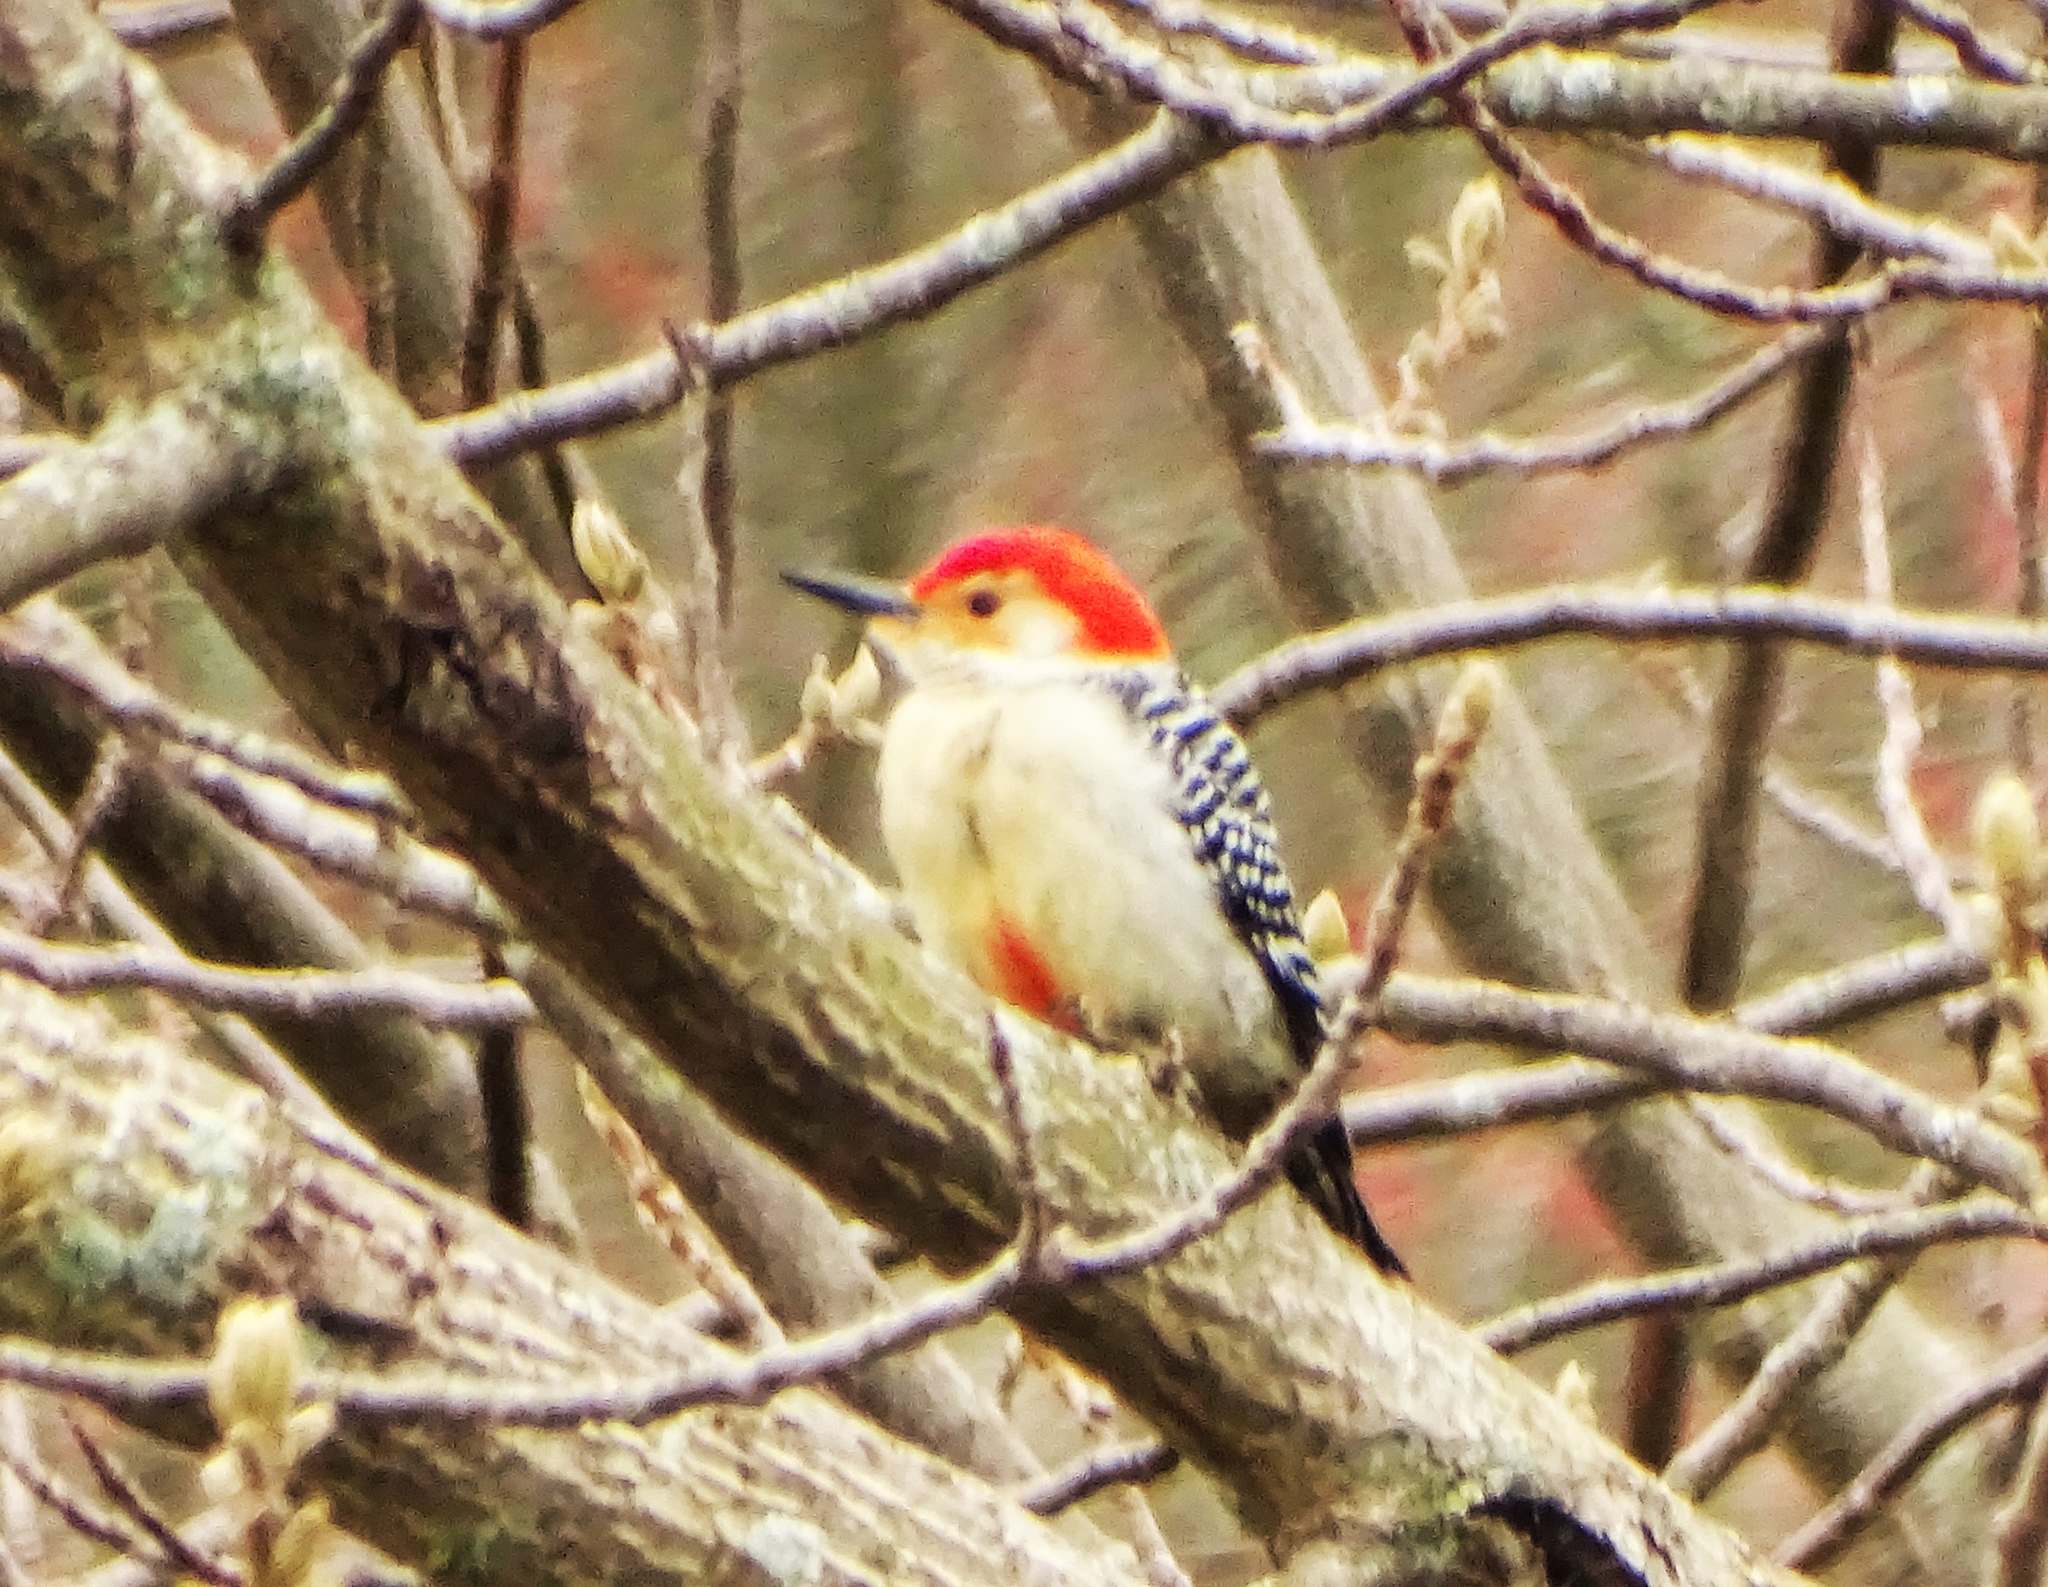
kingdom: Animalia
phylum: Chordata
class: Aves
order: Piciformes
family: Picidae
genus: Melanerpes
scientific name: Melanerpes carolinus
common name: Red-bellied woodpecker
